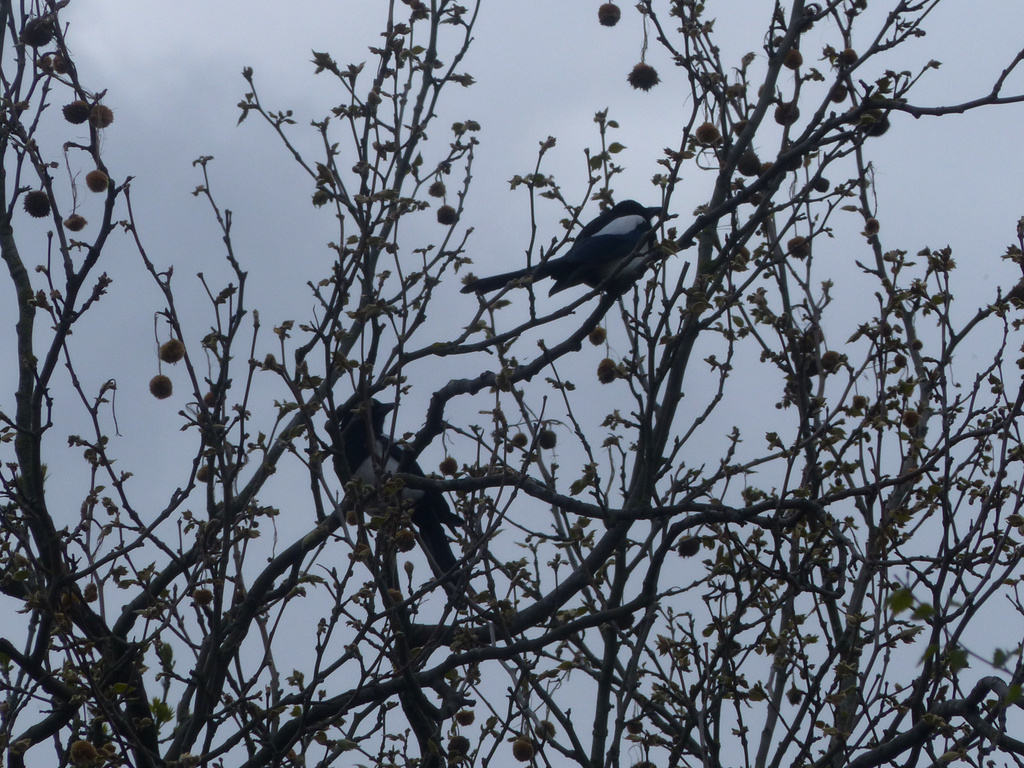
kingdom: Animalia
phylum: Chordata
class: Aves
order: Passeriformes
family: Corvidae
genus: Pica
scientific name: Pica pica
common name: Eurasian magpie
